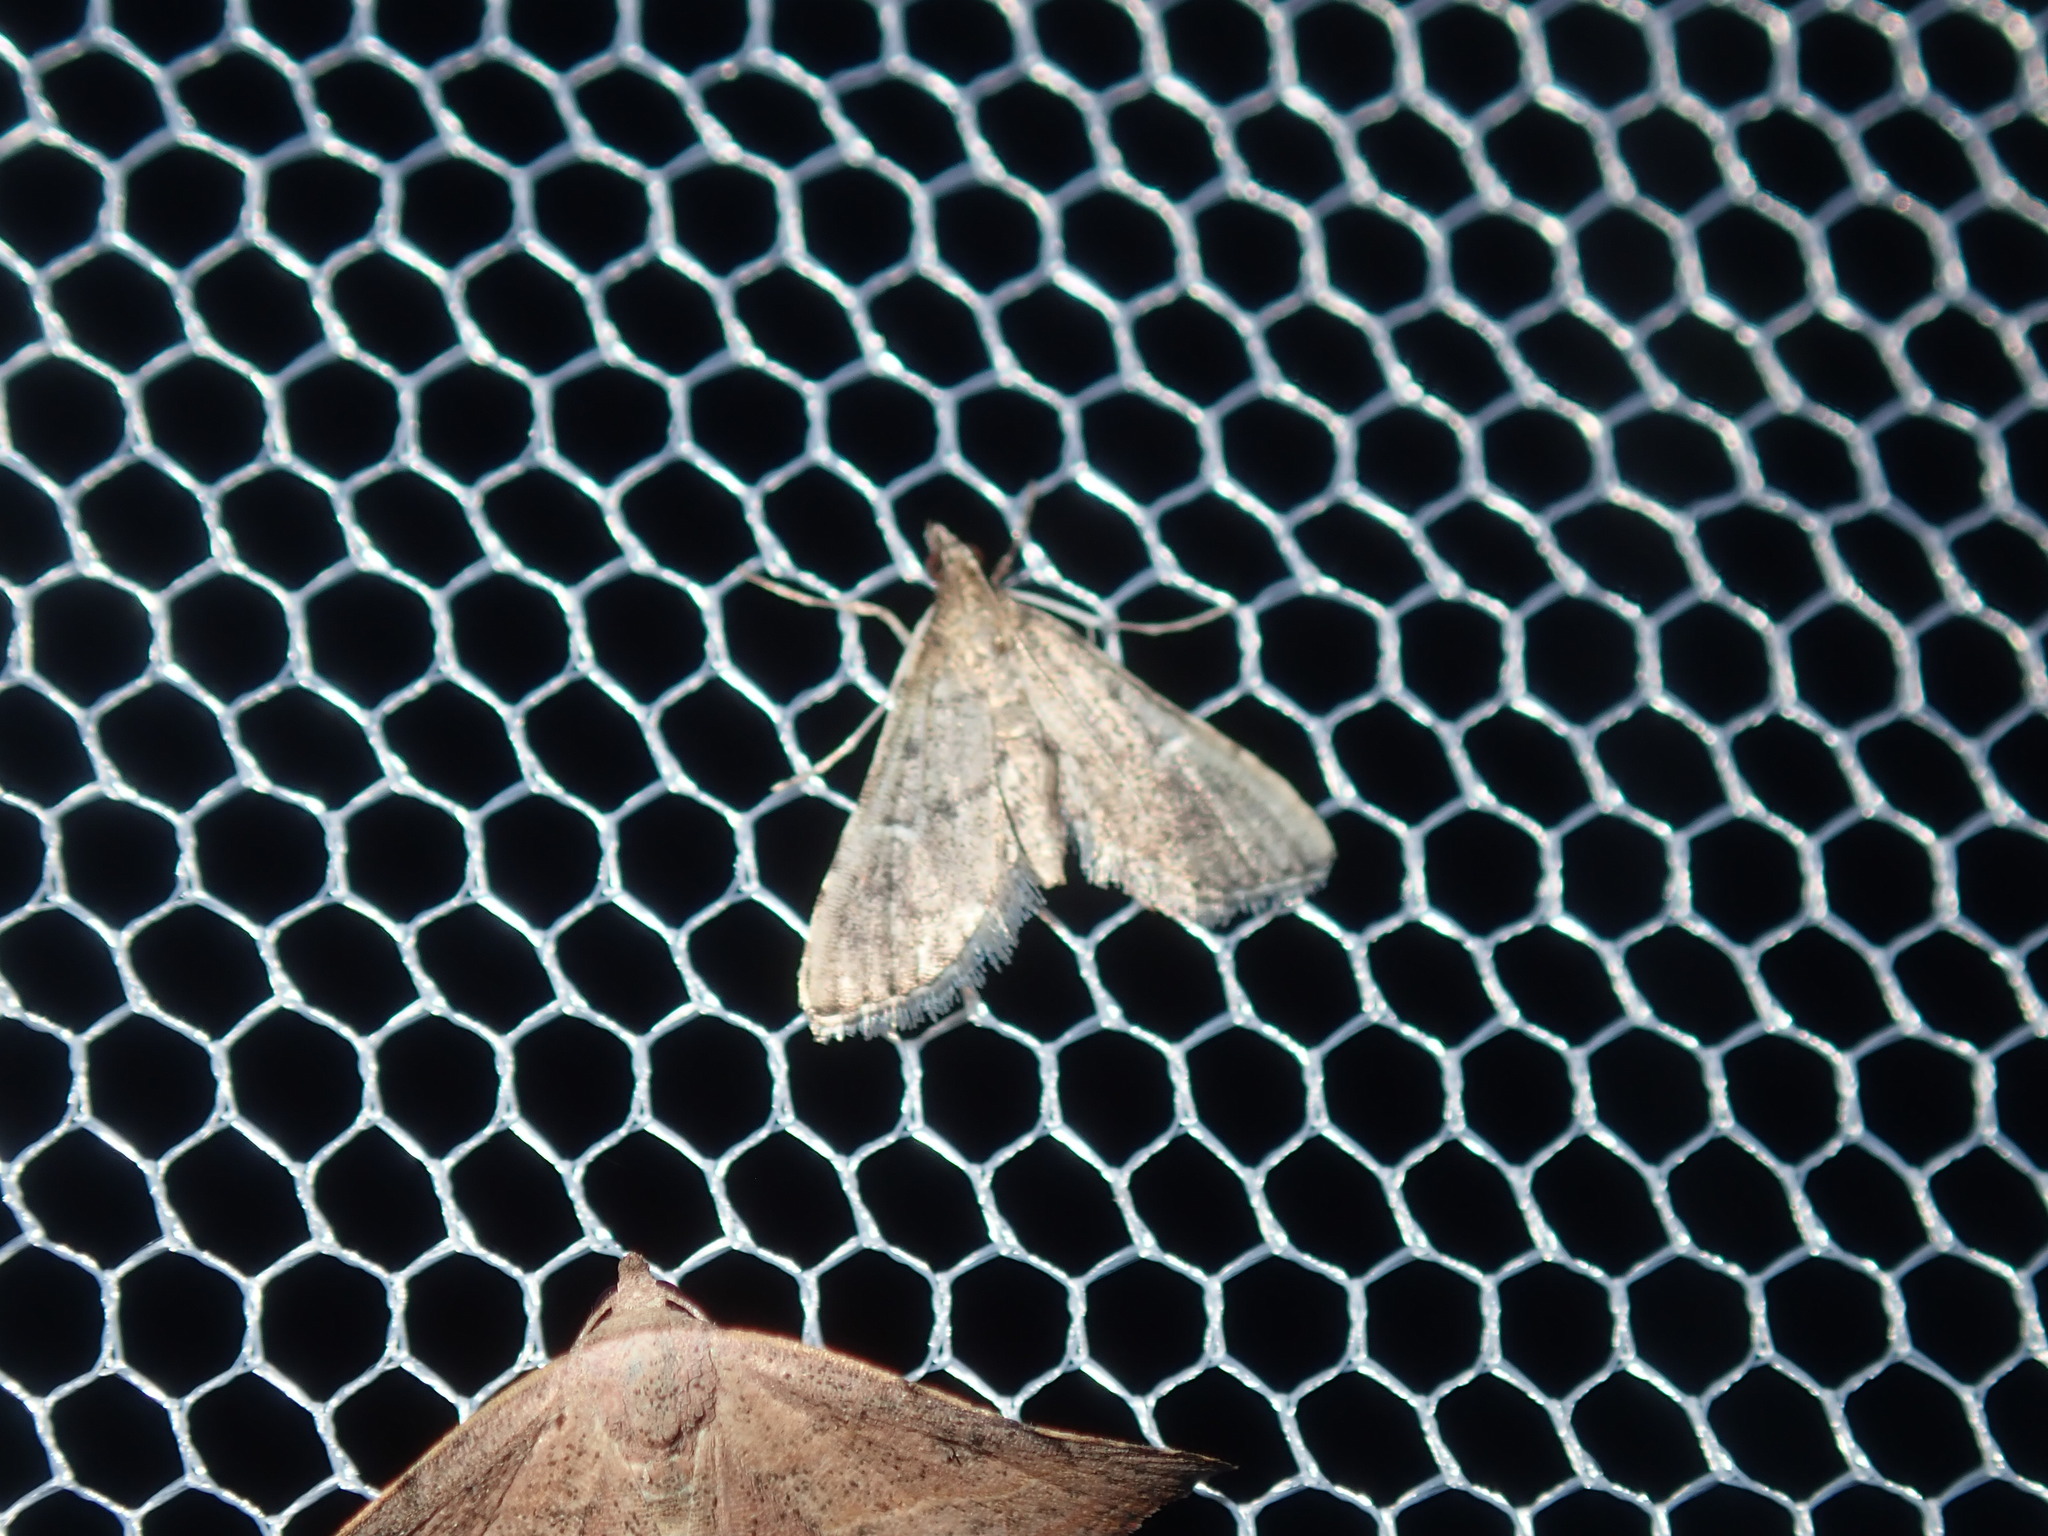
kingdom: Animalia
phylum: Arthropoda
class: Insecta
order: Lepidoptera
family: Crambidae
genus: Diplopseustis
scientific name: Diplopseustis perieresalis
